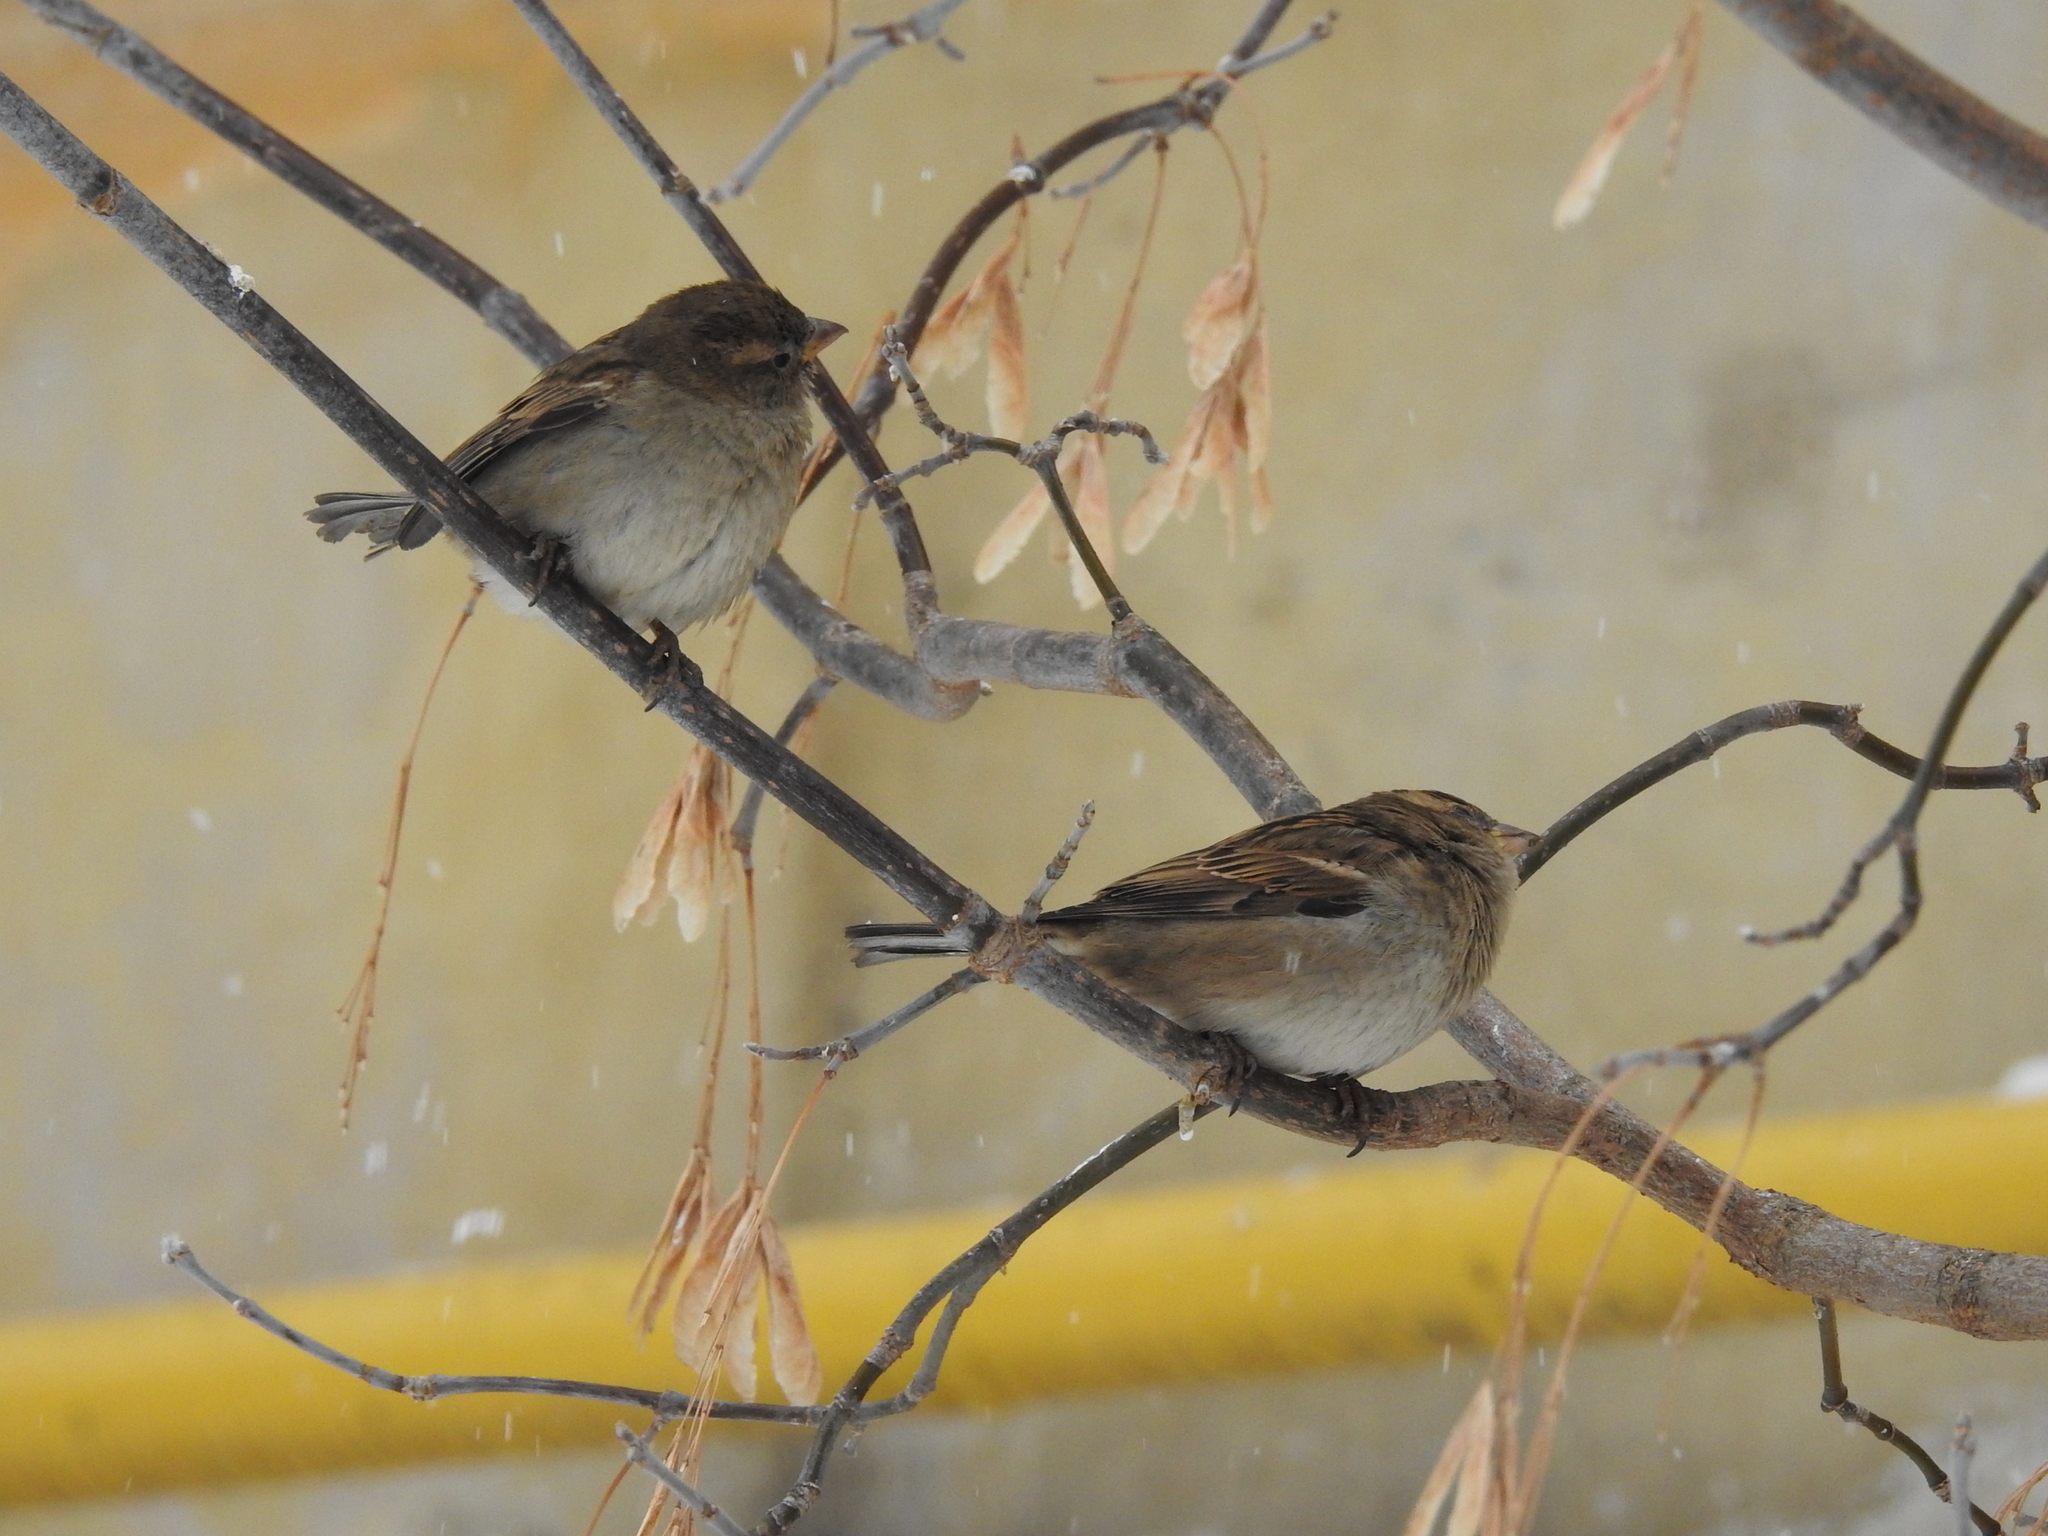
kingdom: Animalia
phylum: Chordata
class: Aves
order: Passeriformes
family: Passeridae
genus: Passer
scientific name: Passer domesticus
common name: House sparrow
